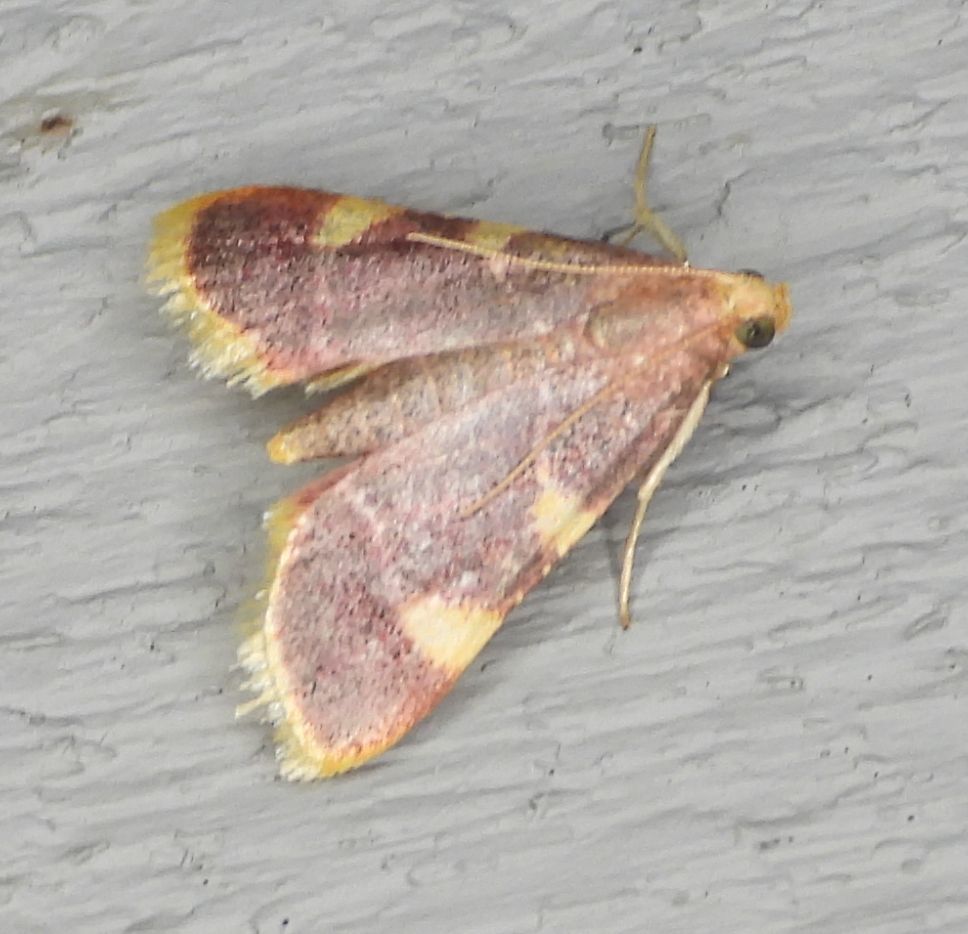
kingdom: Animalia
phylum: Arthropoda
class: Insecta
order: Lepidoptera
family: Pyralidae
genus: Hypsopygia
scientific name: Hypsopygia costalis
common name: Gold triangle
